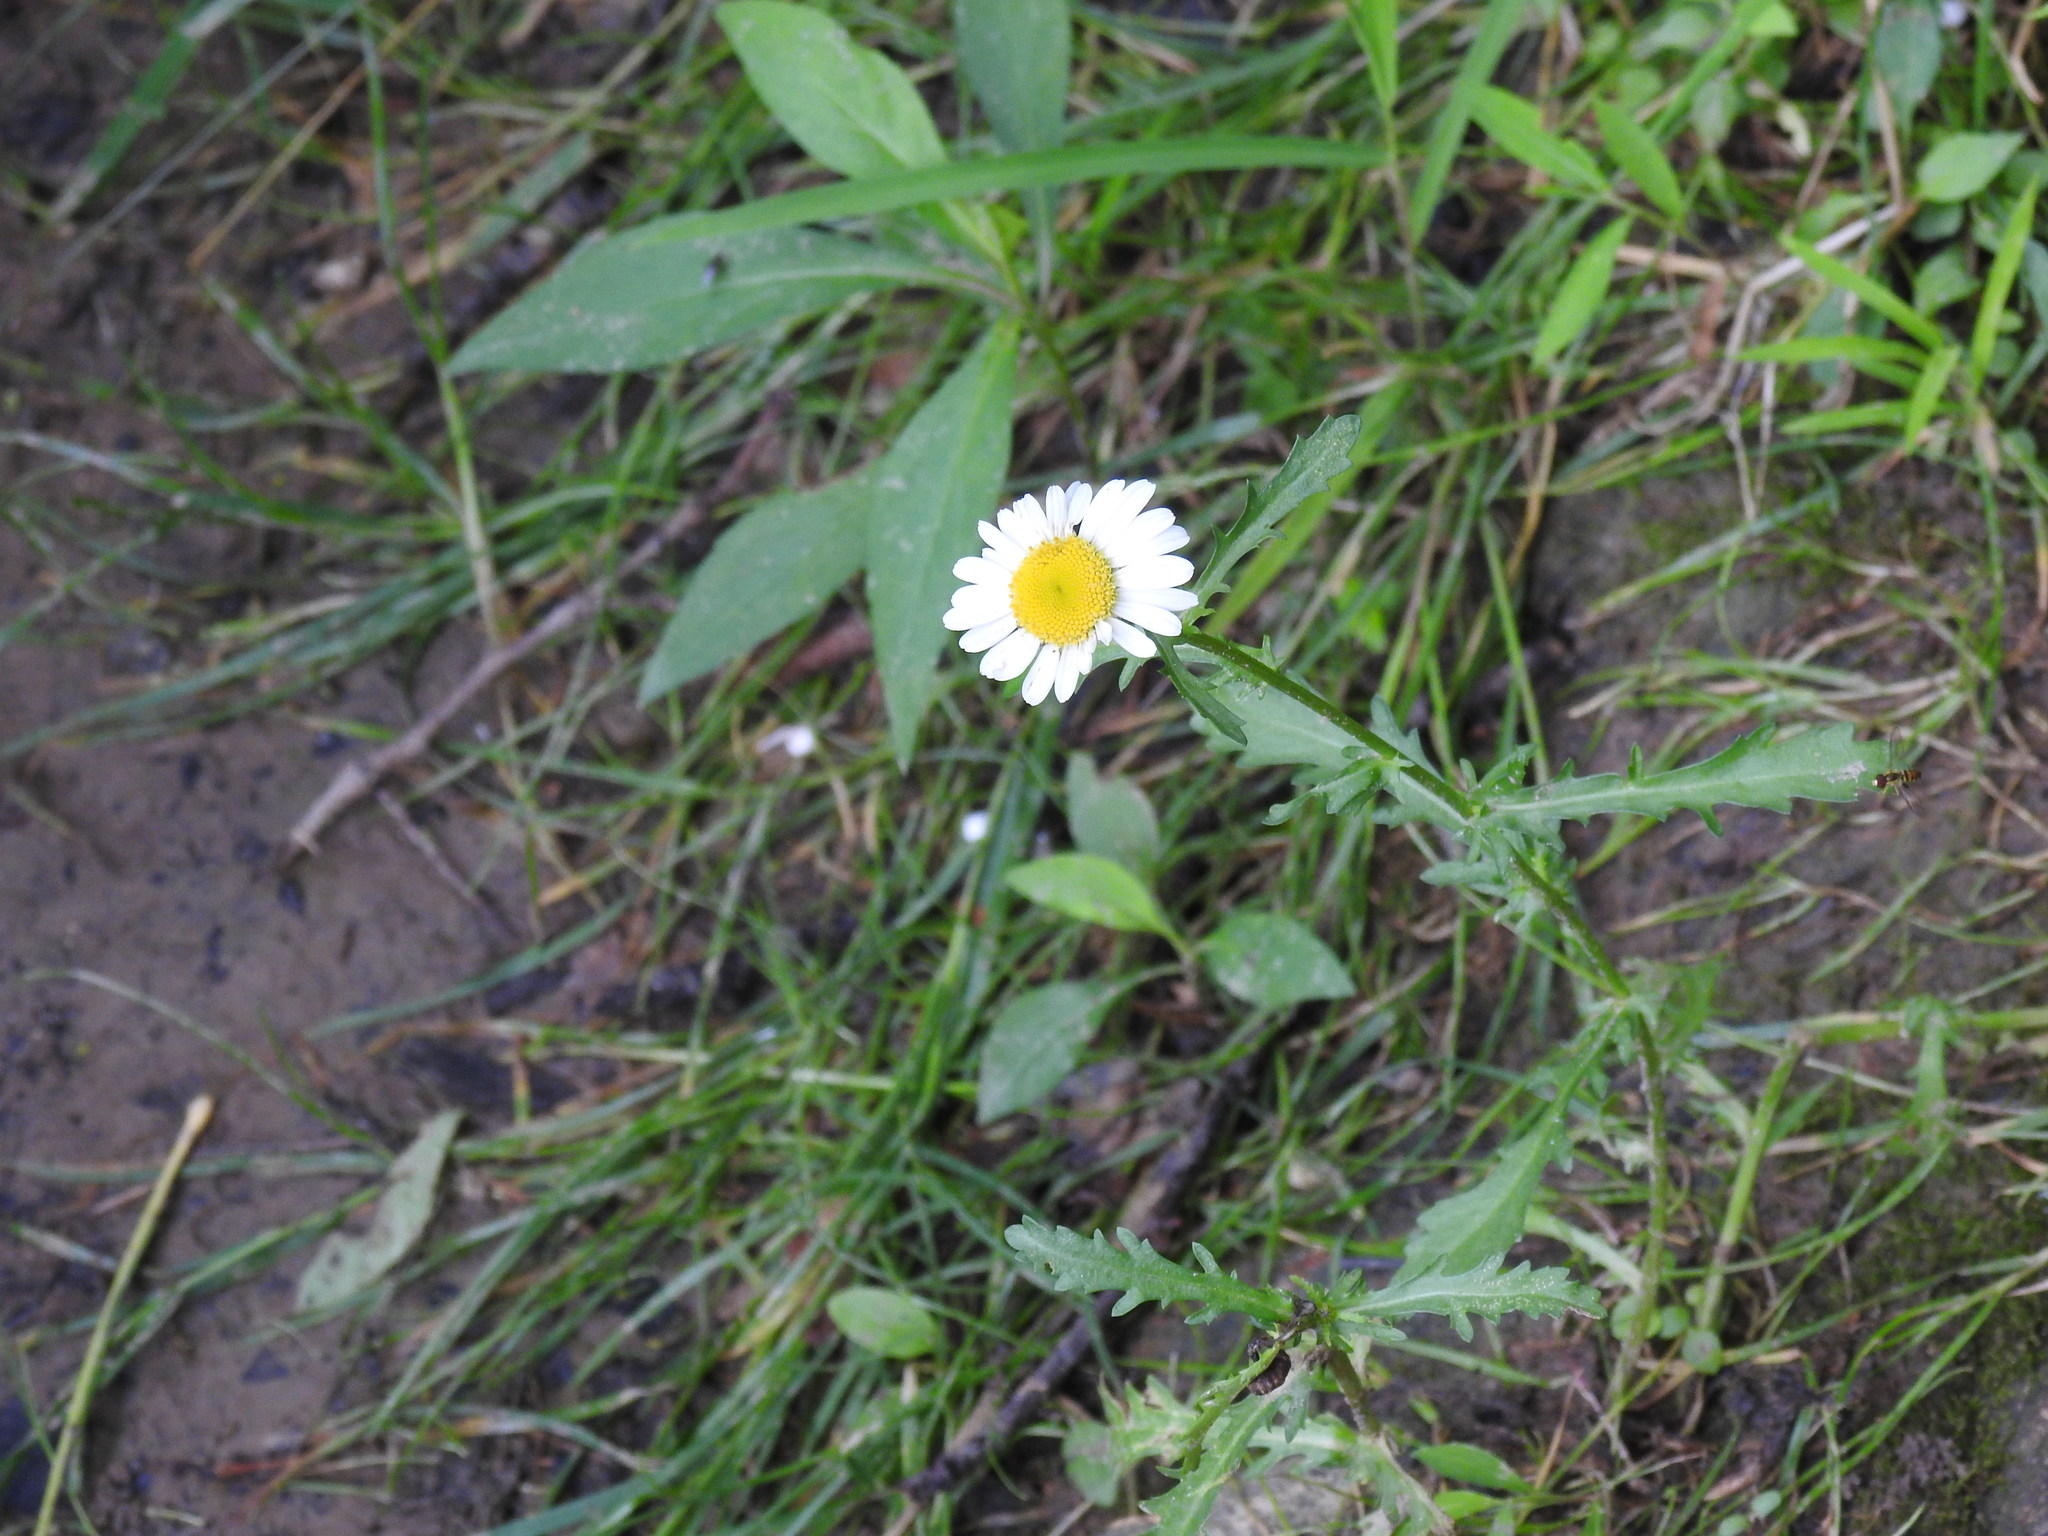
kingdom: Plantae
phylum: Tracheophyta
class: Magnoliopsida
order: Asterales
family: Asteraceae
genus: Leucanthemum
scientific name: Leucanthemum vulgare
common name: Oxeye daisy
